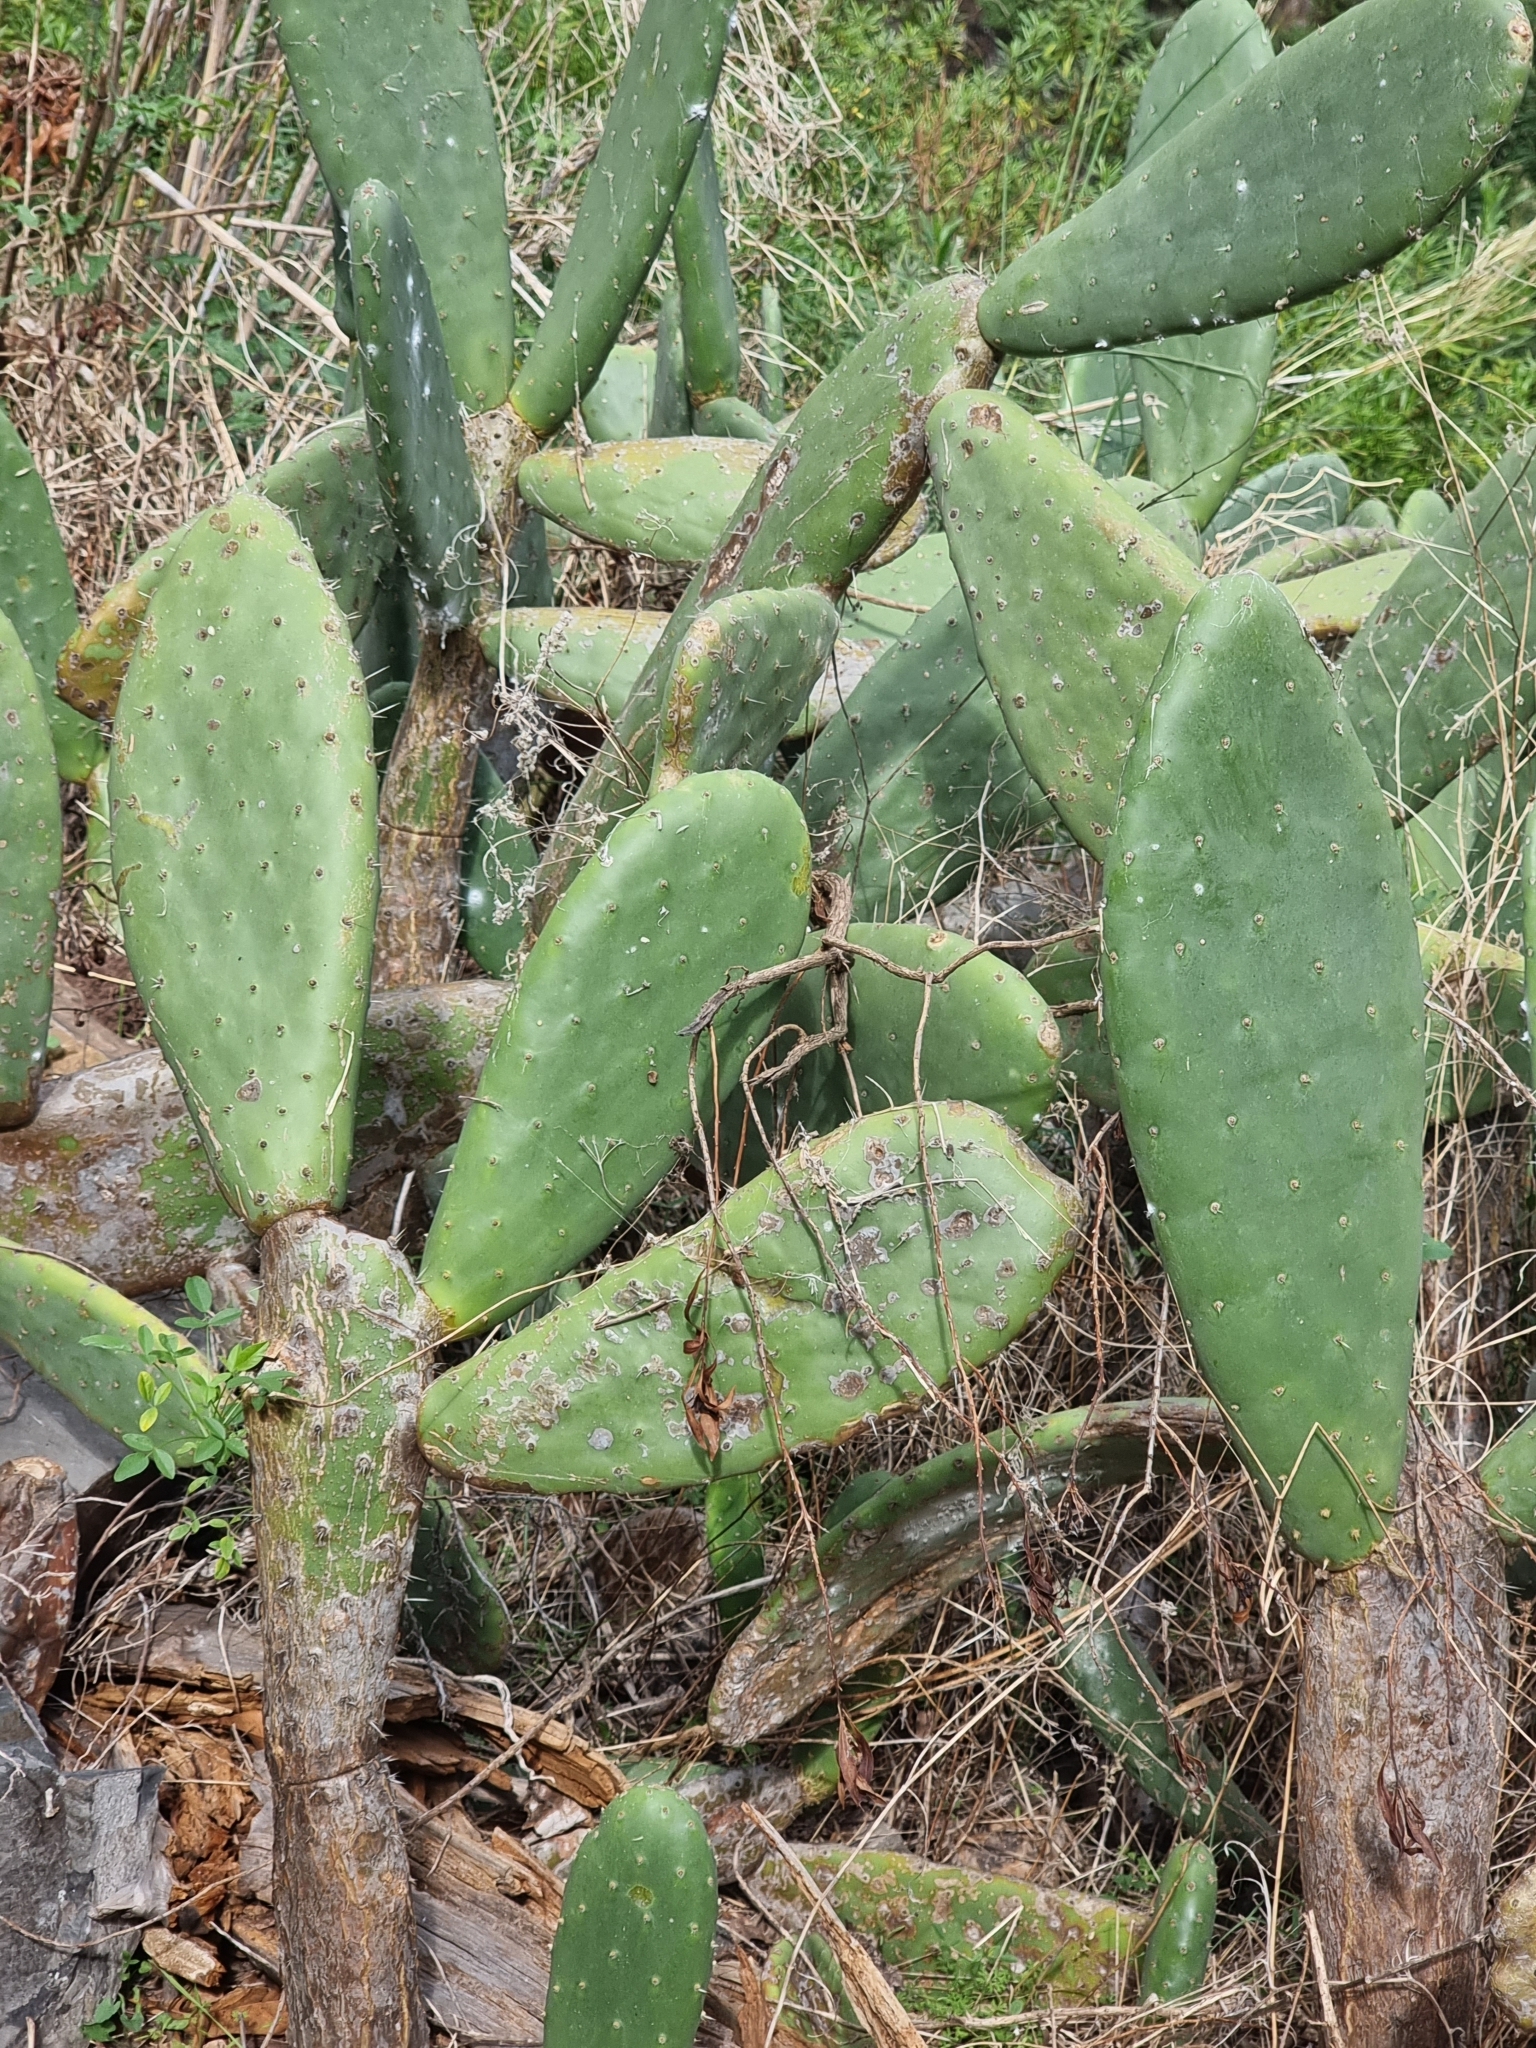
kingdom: Plantae
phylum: Tracheophyta
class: Magnoliopsida
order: Caryophyllales
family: Cactaceae
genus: Opuntia
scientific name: Opuntia ficus-indica
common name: Barbary fig
